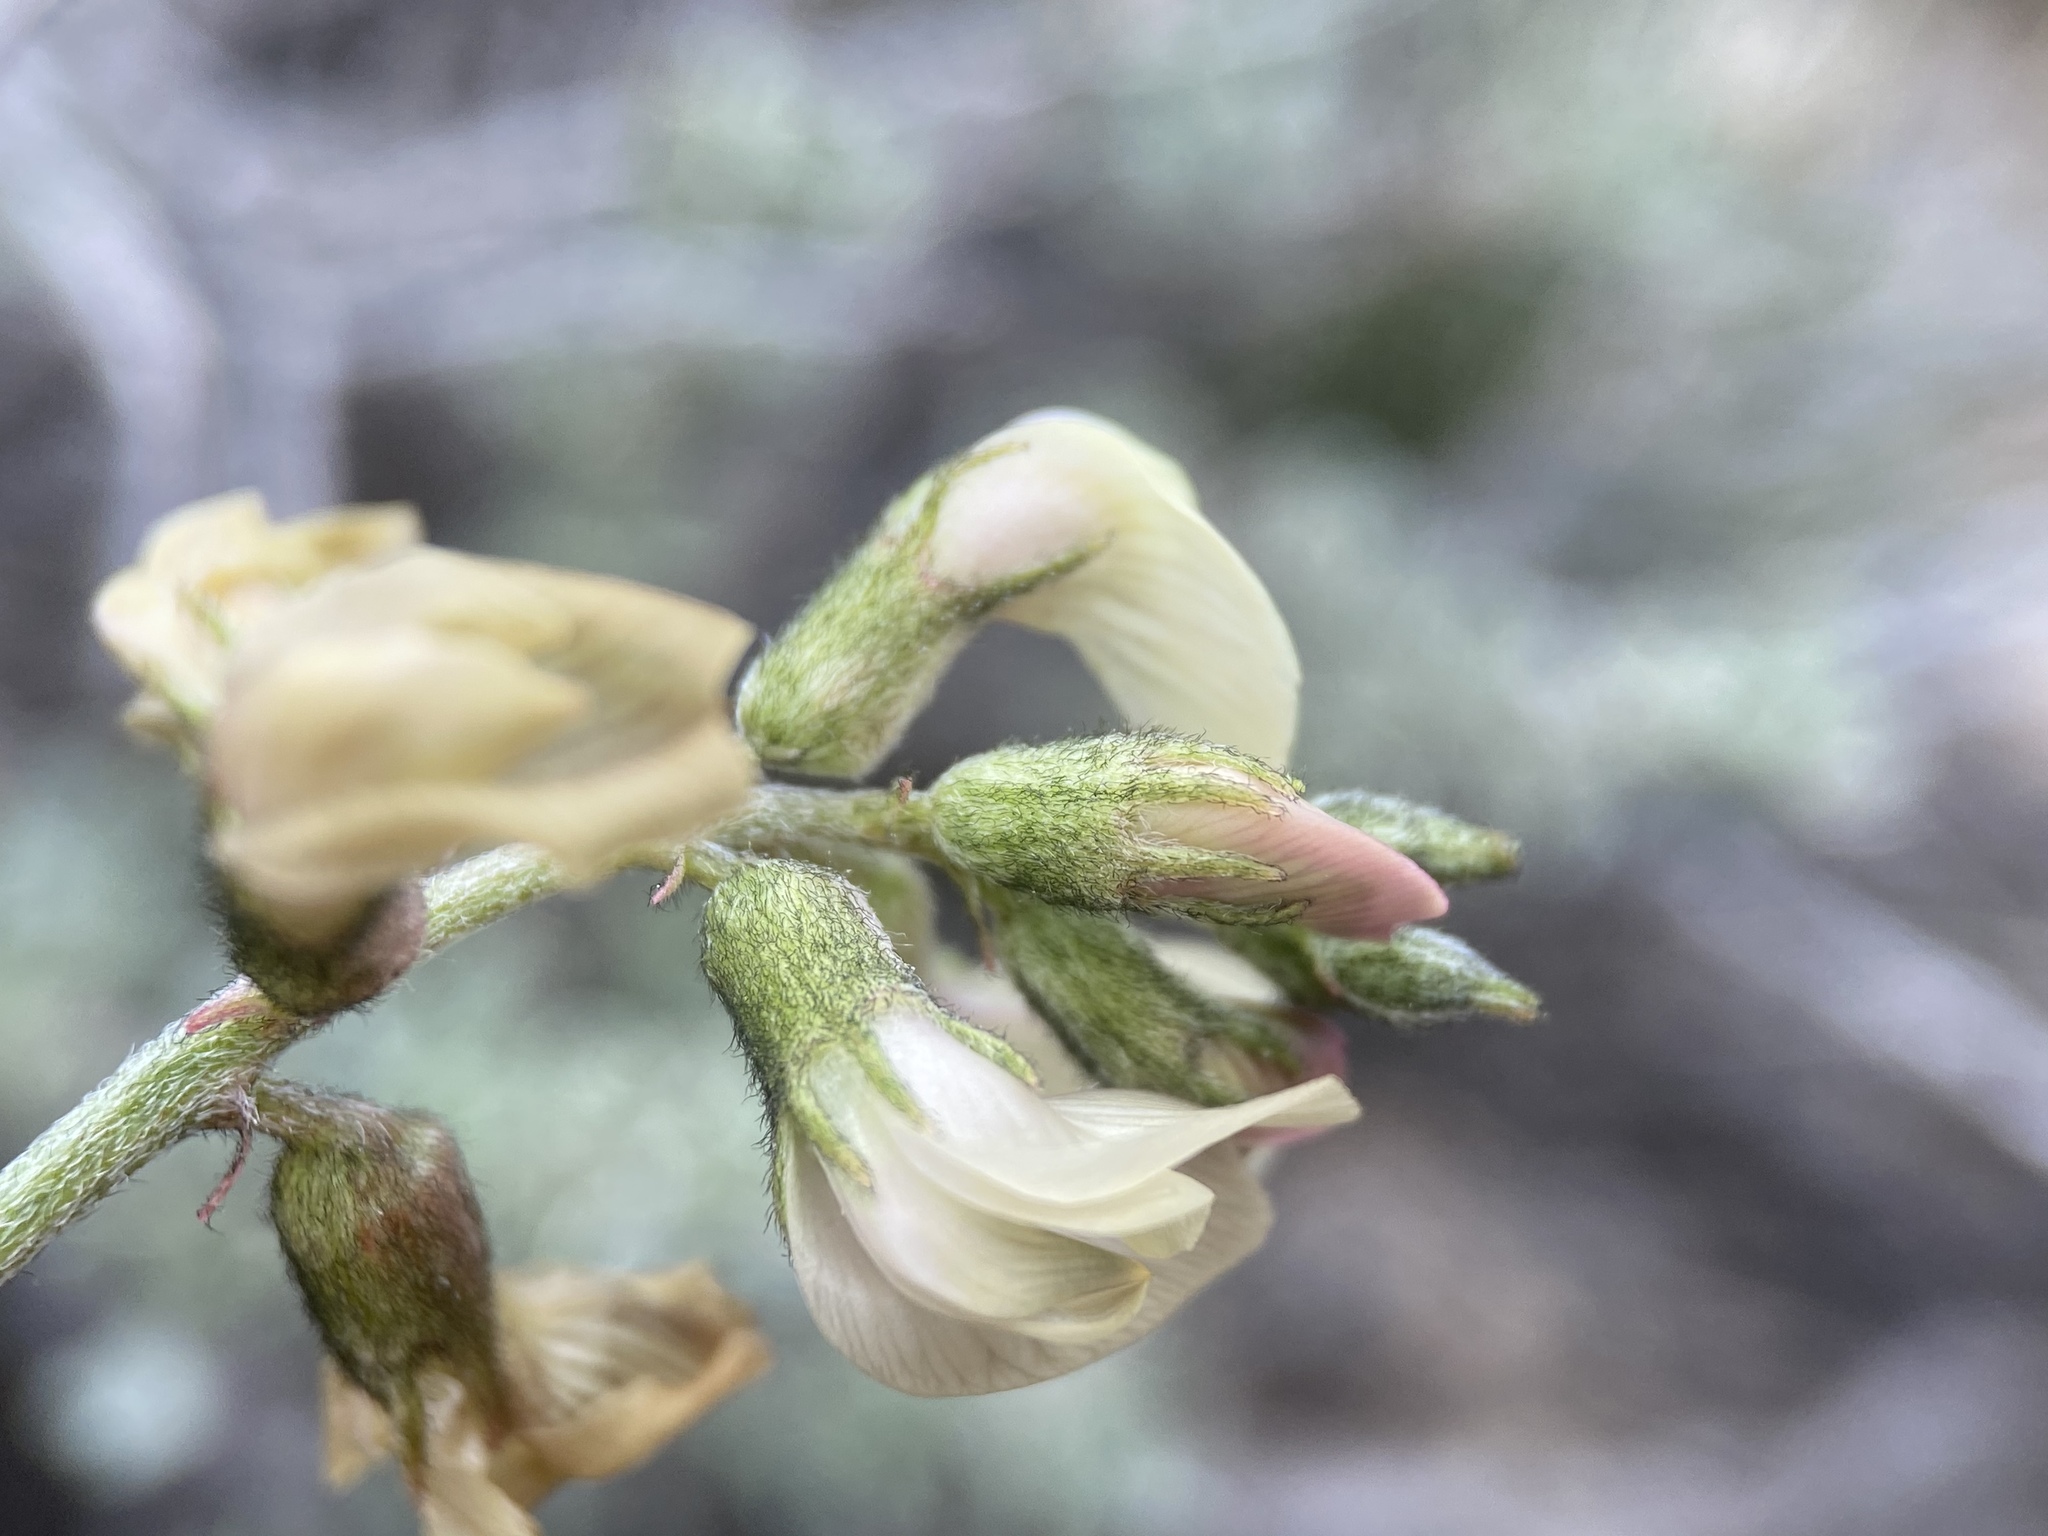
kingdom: Plantae
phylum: Tracheophyta
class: Magnoliopsida
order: Fabales
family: Fabaceae
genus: Astragalus
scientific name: Astragalus toquimanus
